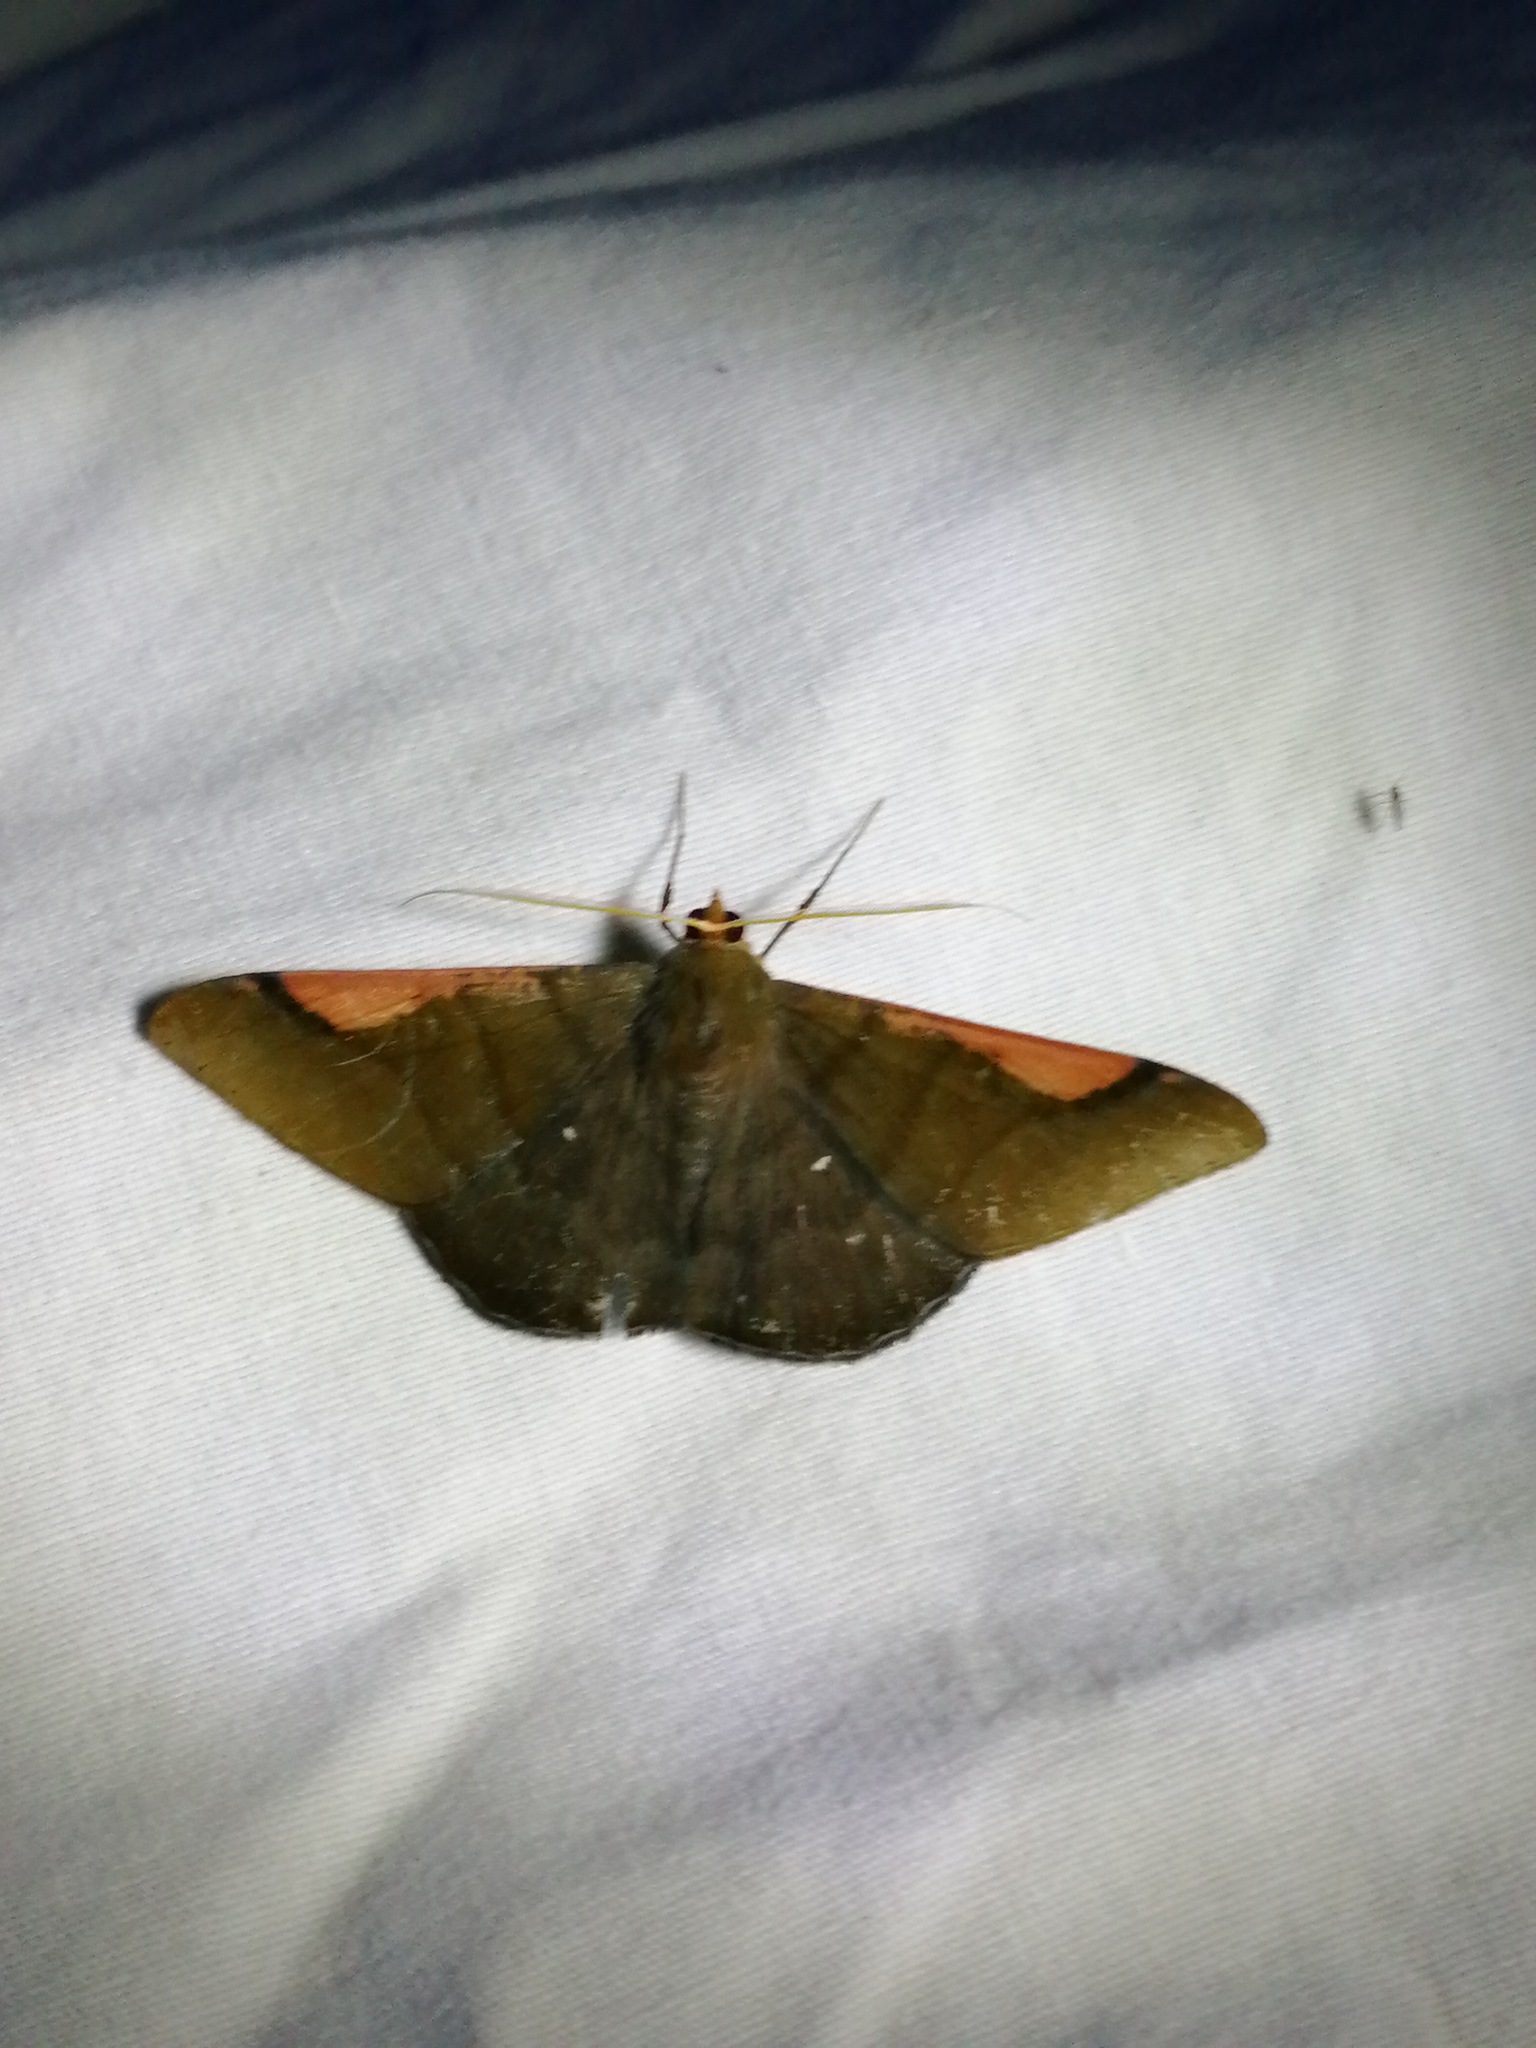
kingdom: Animalia
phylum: Arthropoda
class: Insecta
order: Lepidoptera
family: Geometridae
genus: Sphacelodes
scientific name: Sphacelodes vulneraria
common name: Looper moth
